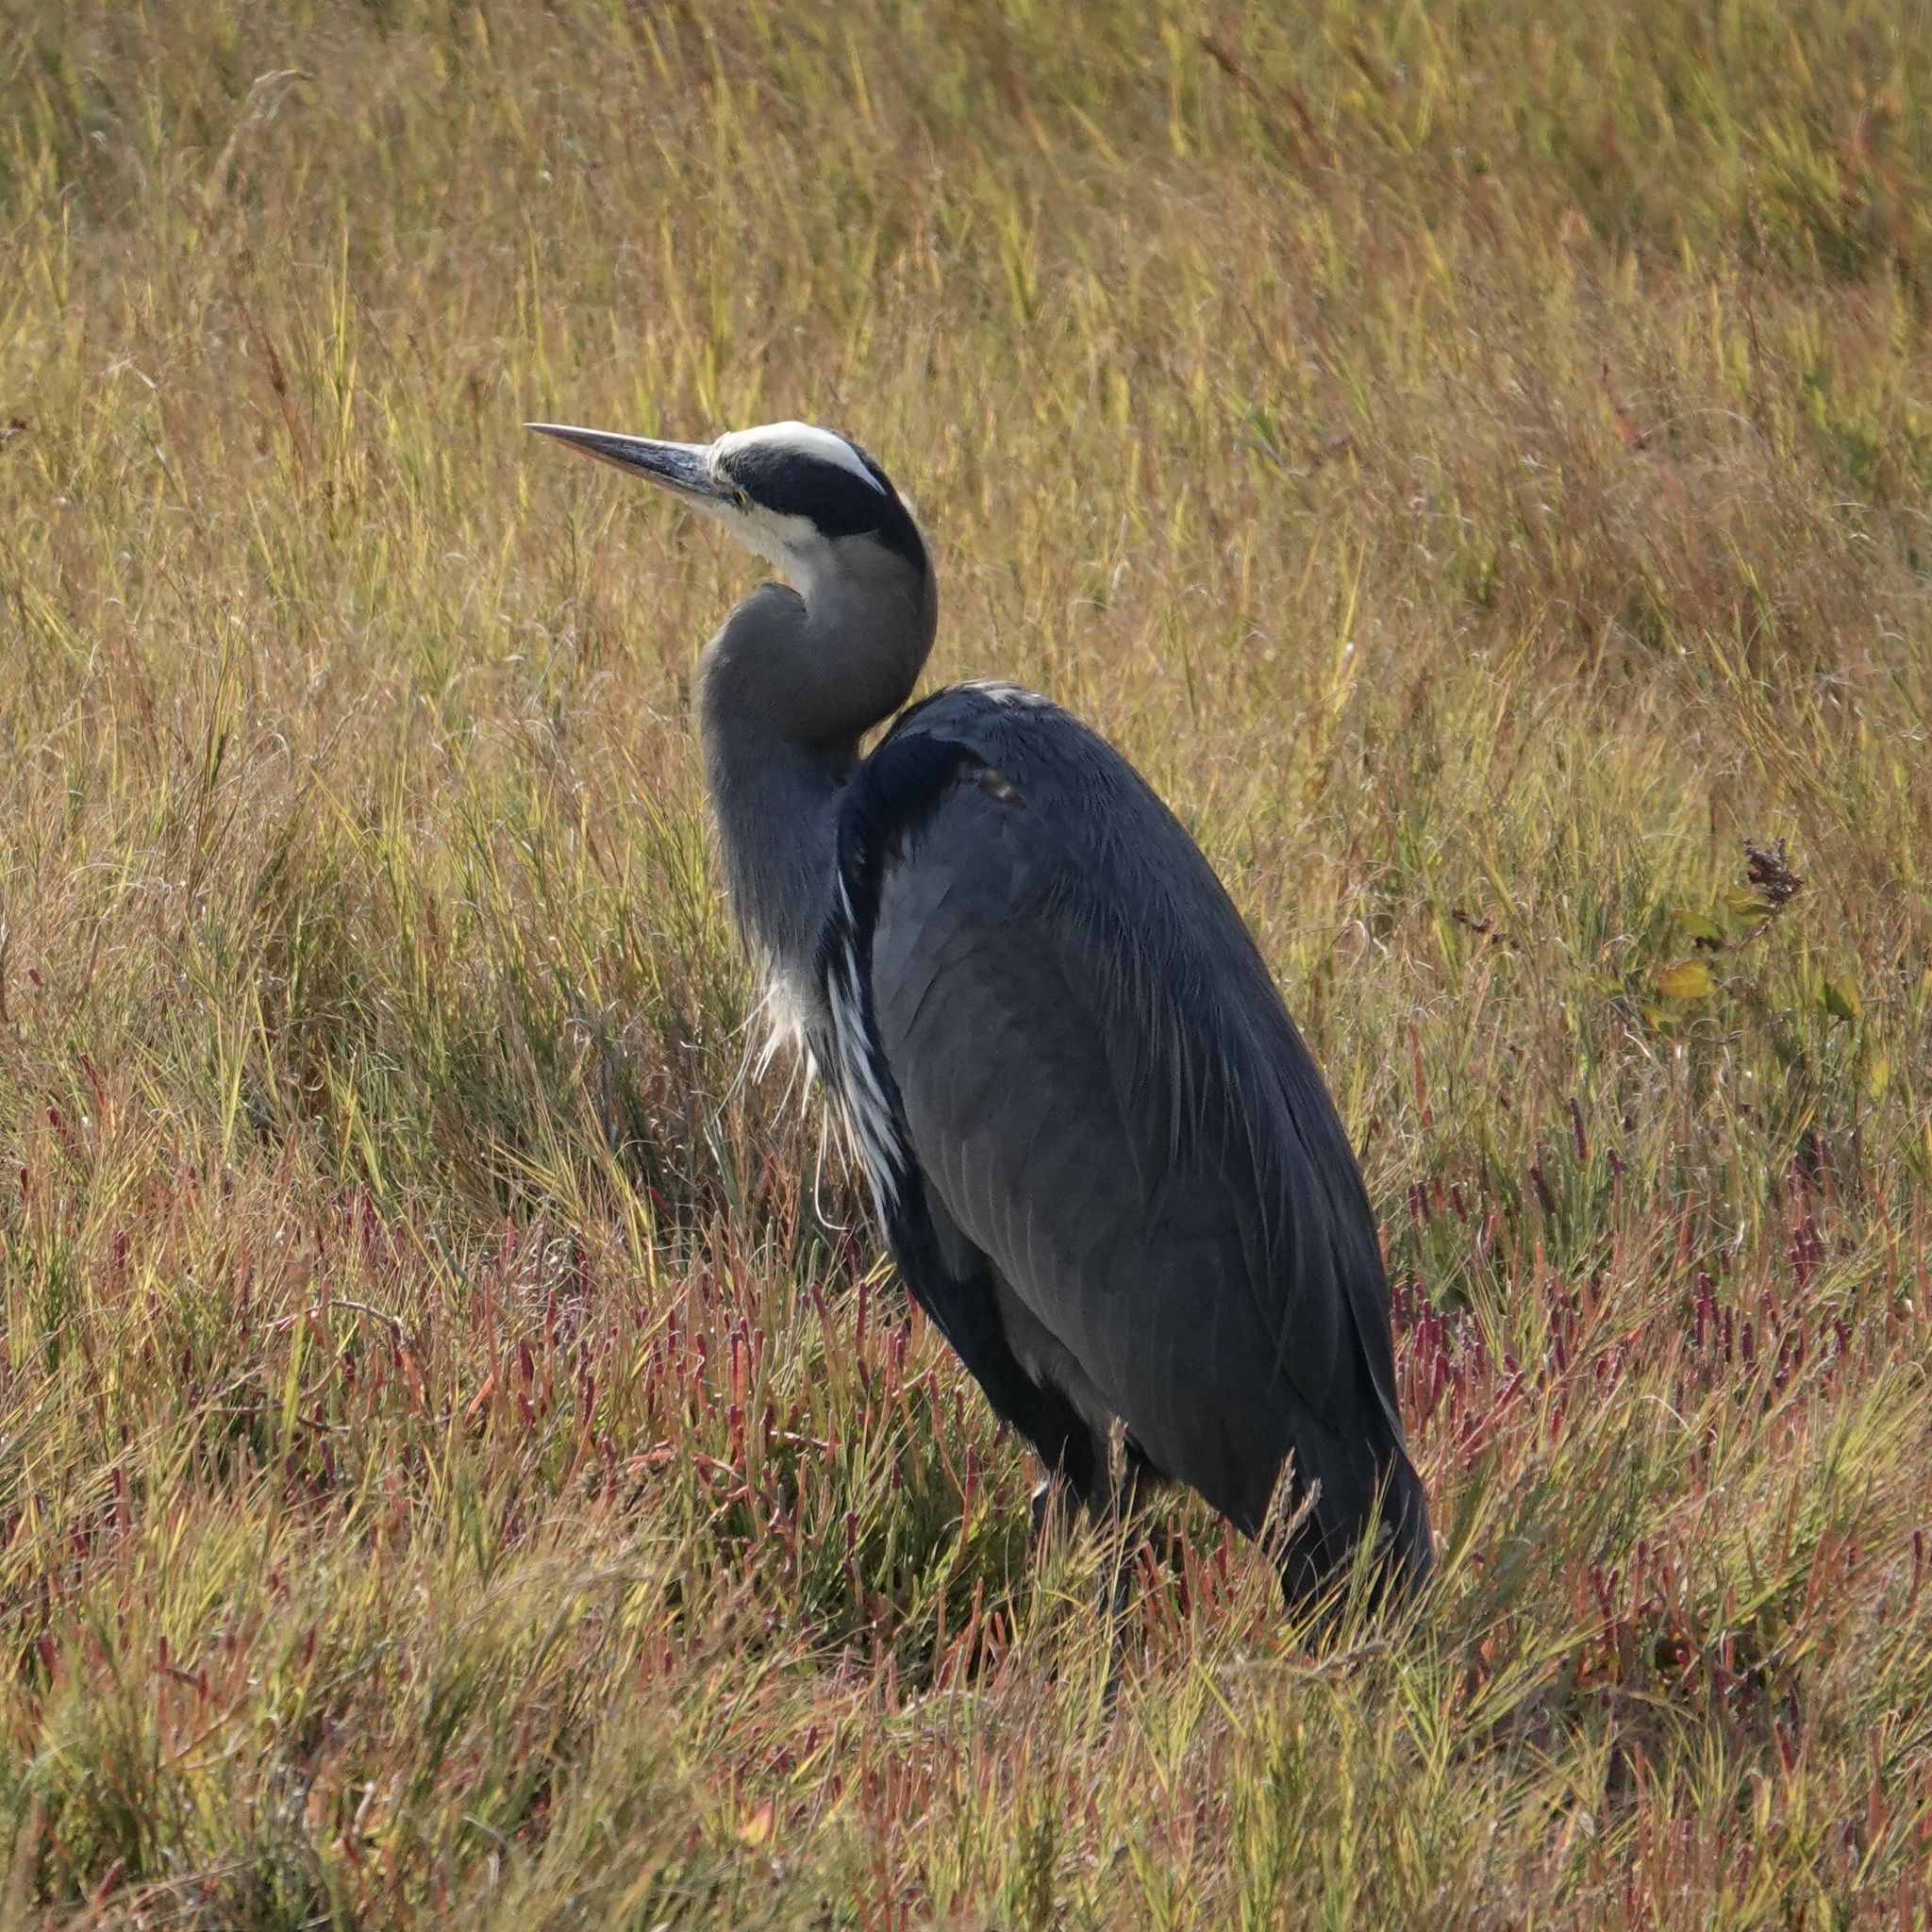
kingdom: Animalia
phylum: Chordata
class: Aves
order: Pelecaniformes
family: Ardeidae
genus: Ardea
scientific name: Ardea herodias
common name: Great blue heron
